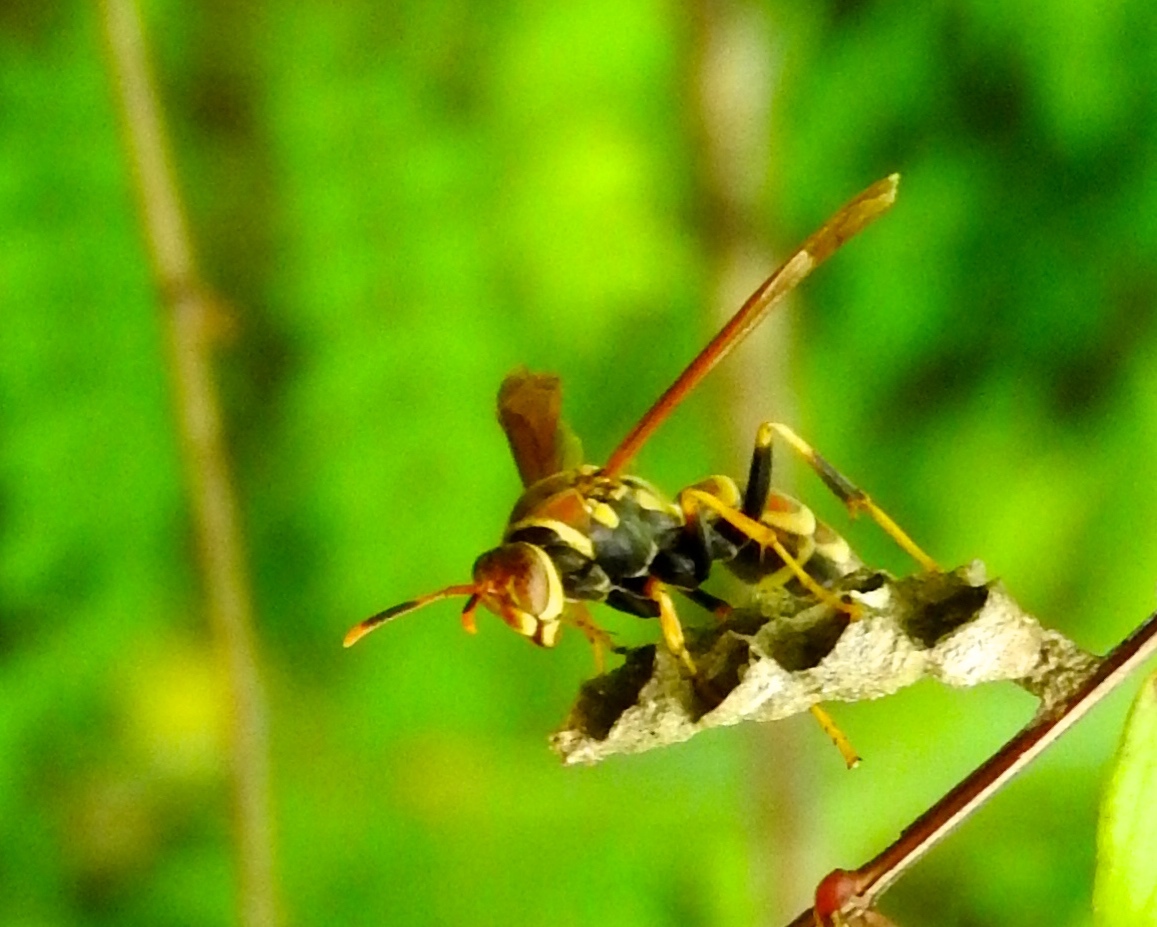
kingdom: Animalia
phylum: Arthropoda
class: Insecta
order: Hymenoptera
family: Eumenidae
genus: Polistes
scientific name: Polistes instabilis
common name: Unstable paper wasp
